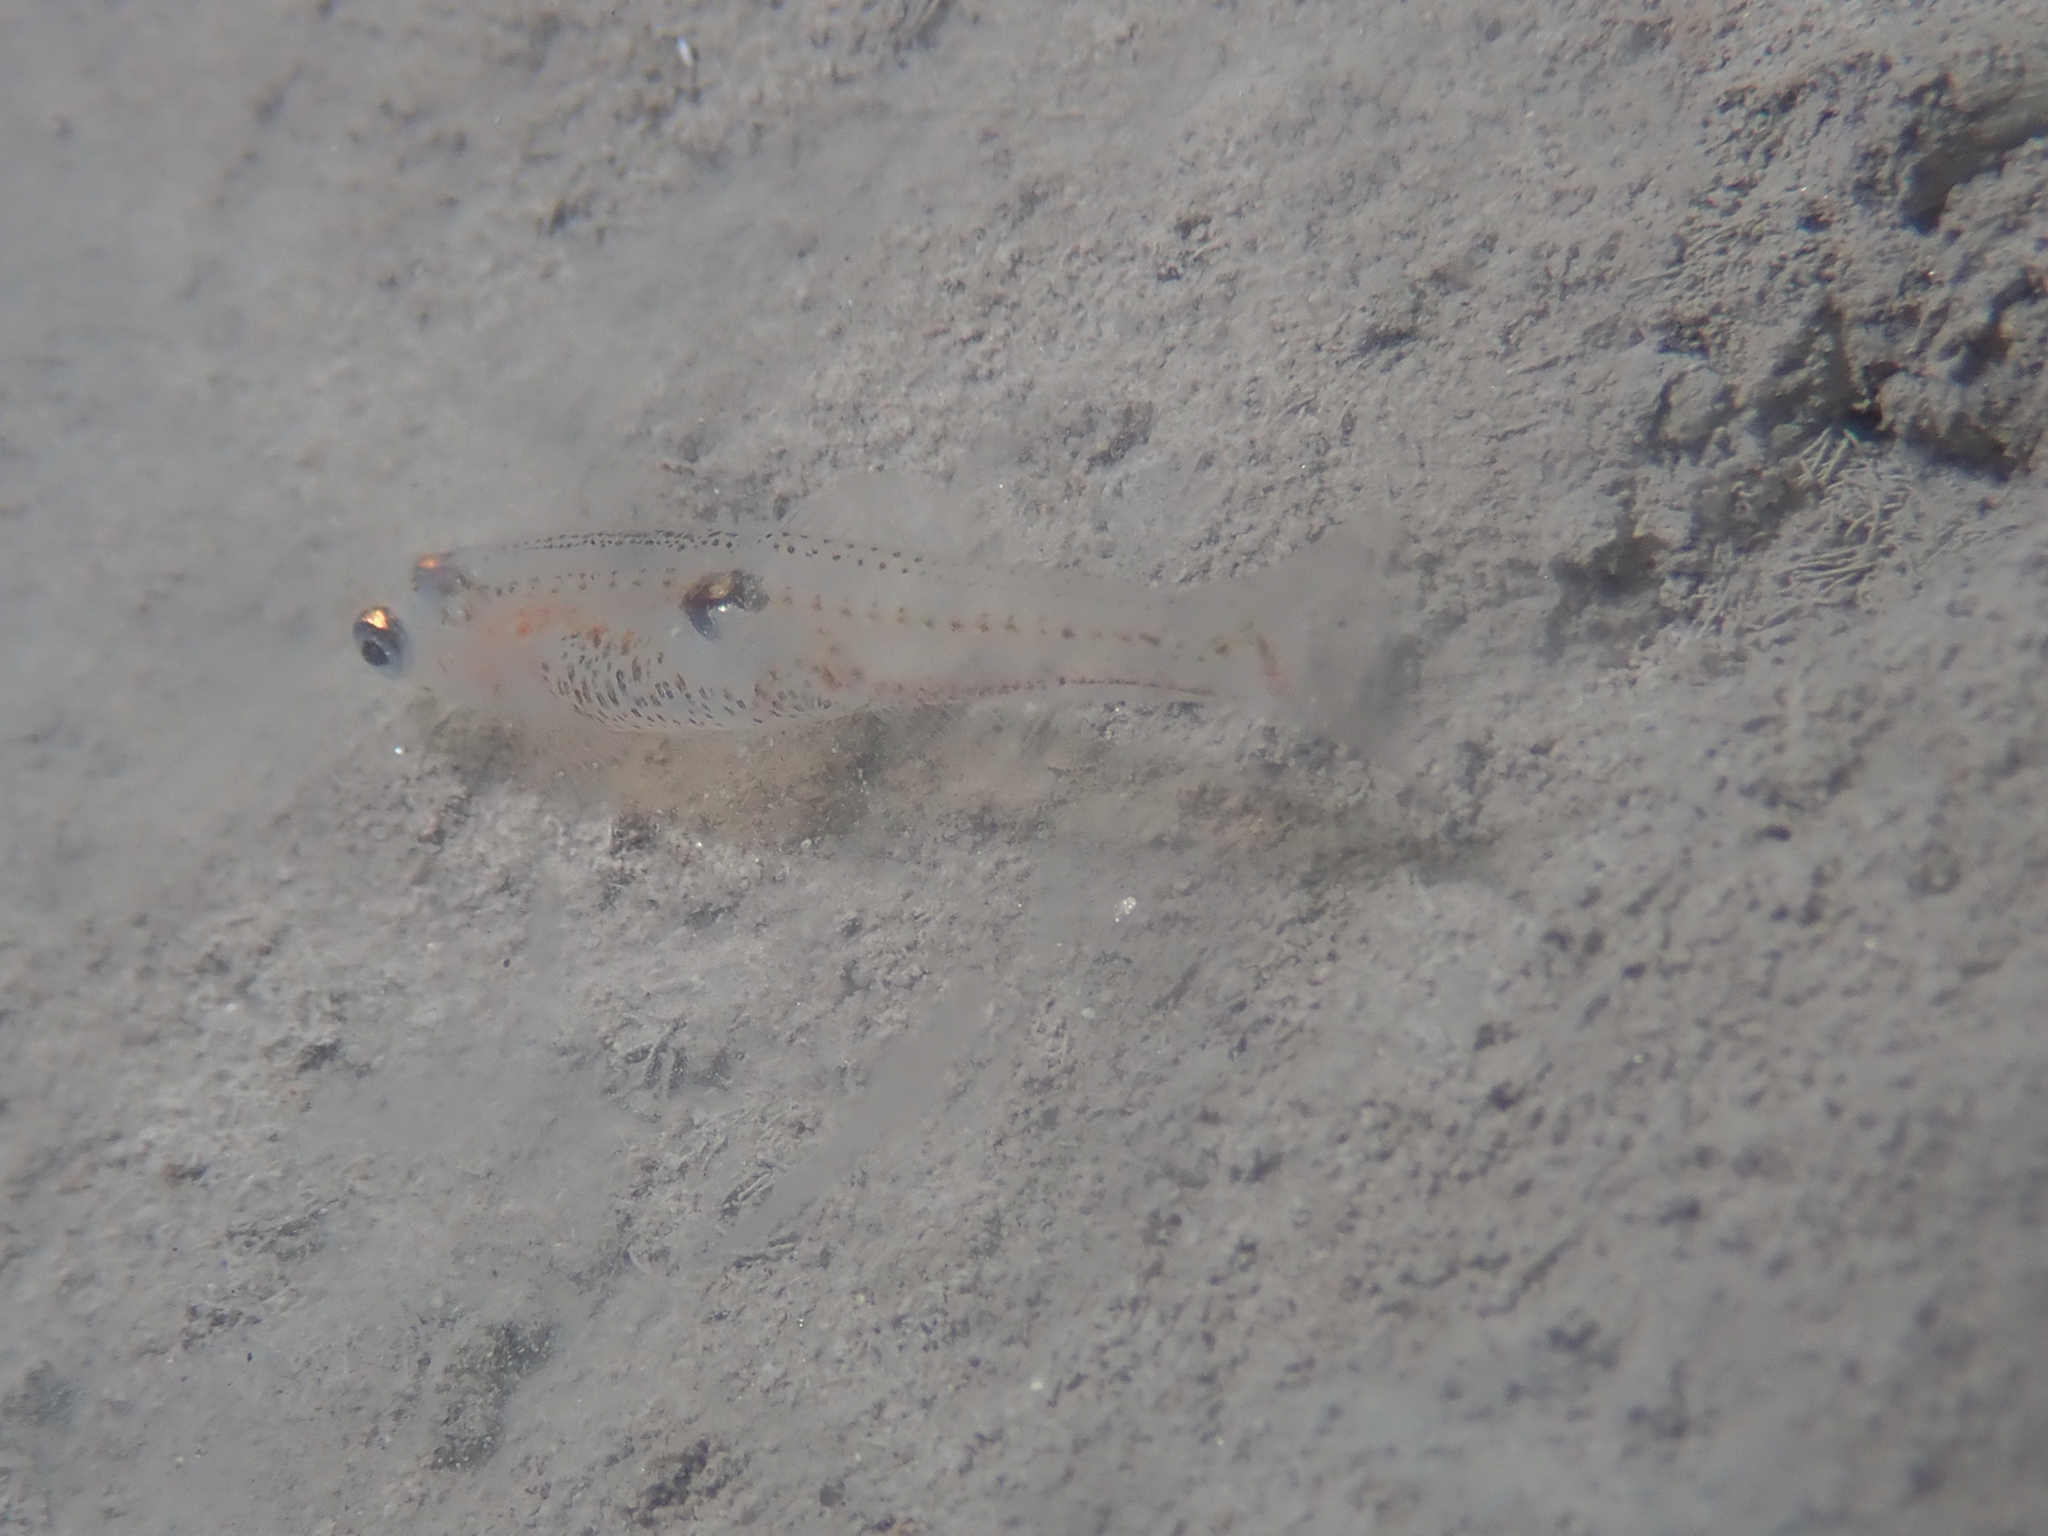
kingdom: Animalia
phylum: Chordata
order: Perciformes
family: Gobiidae
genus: Aphia
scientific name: Aphia minuta
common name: Transparent goby
